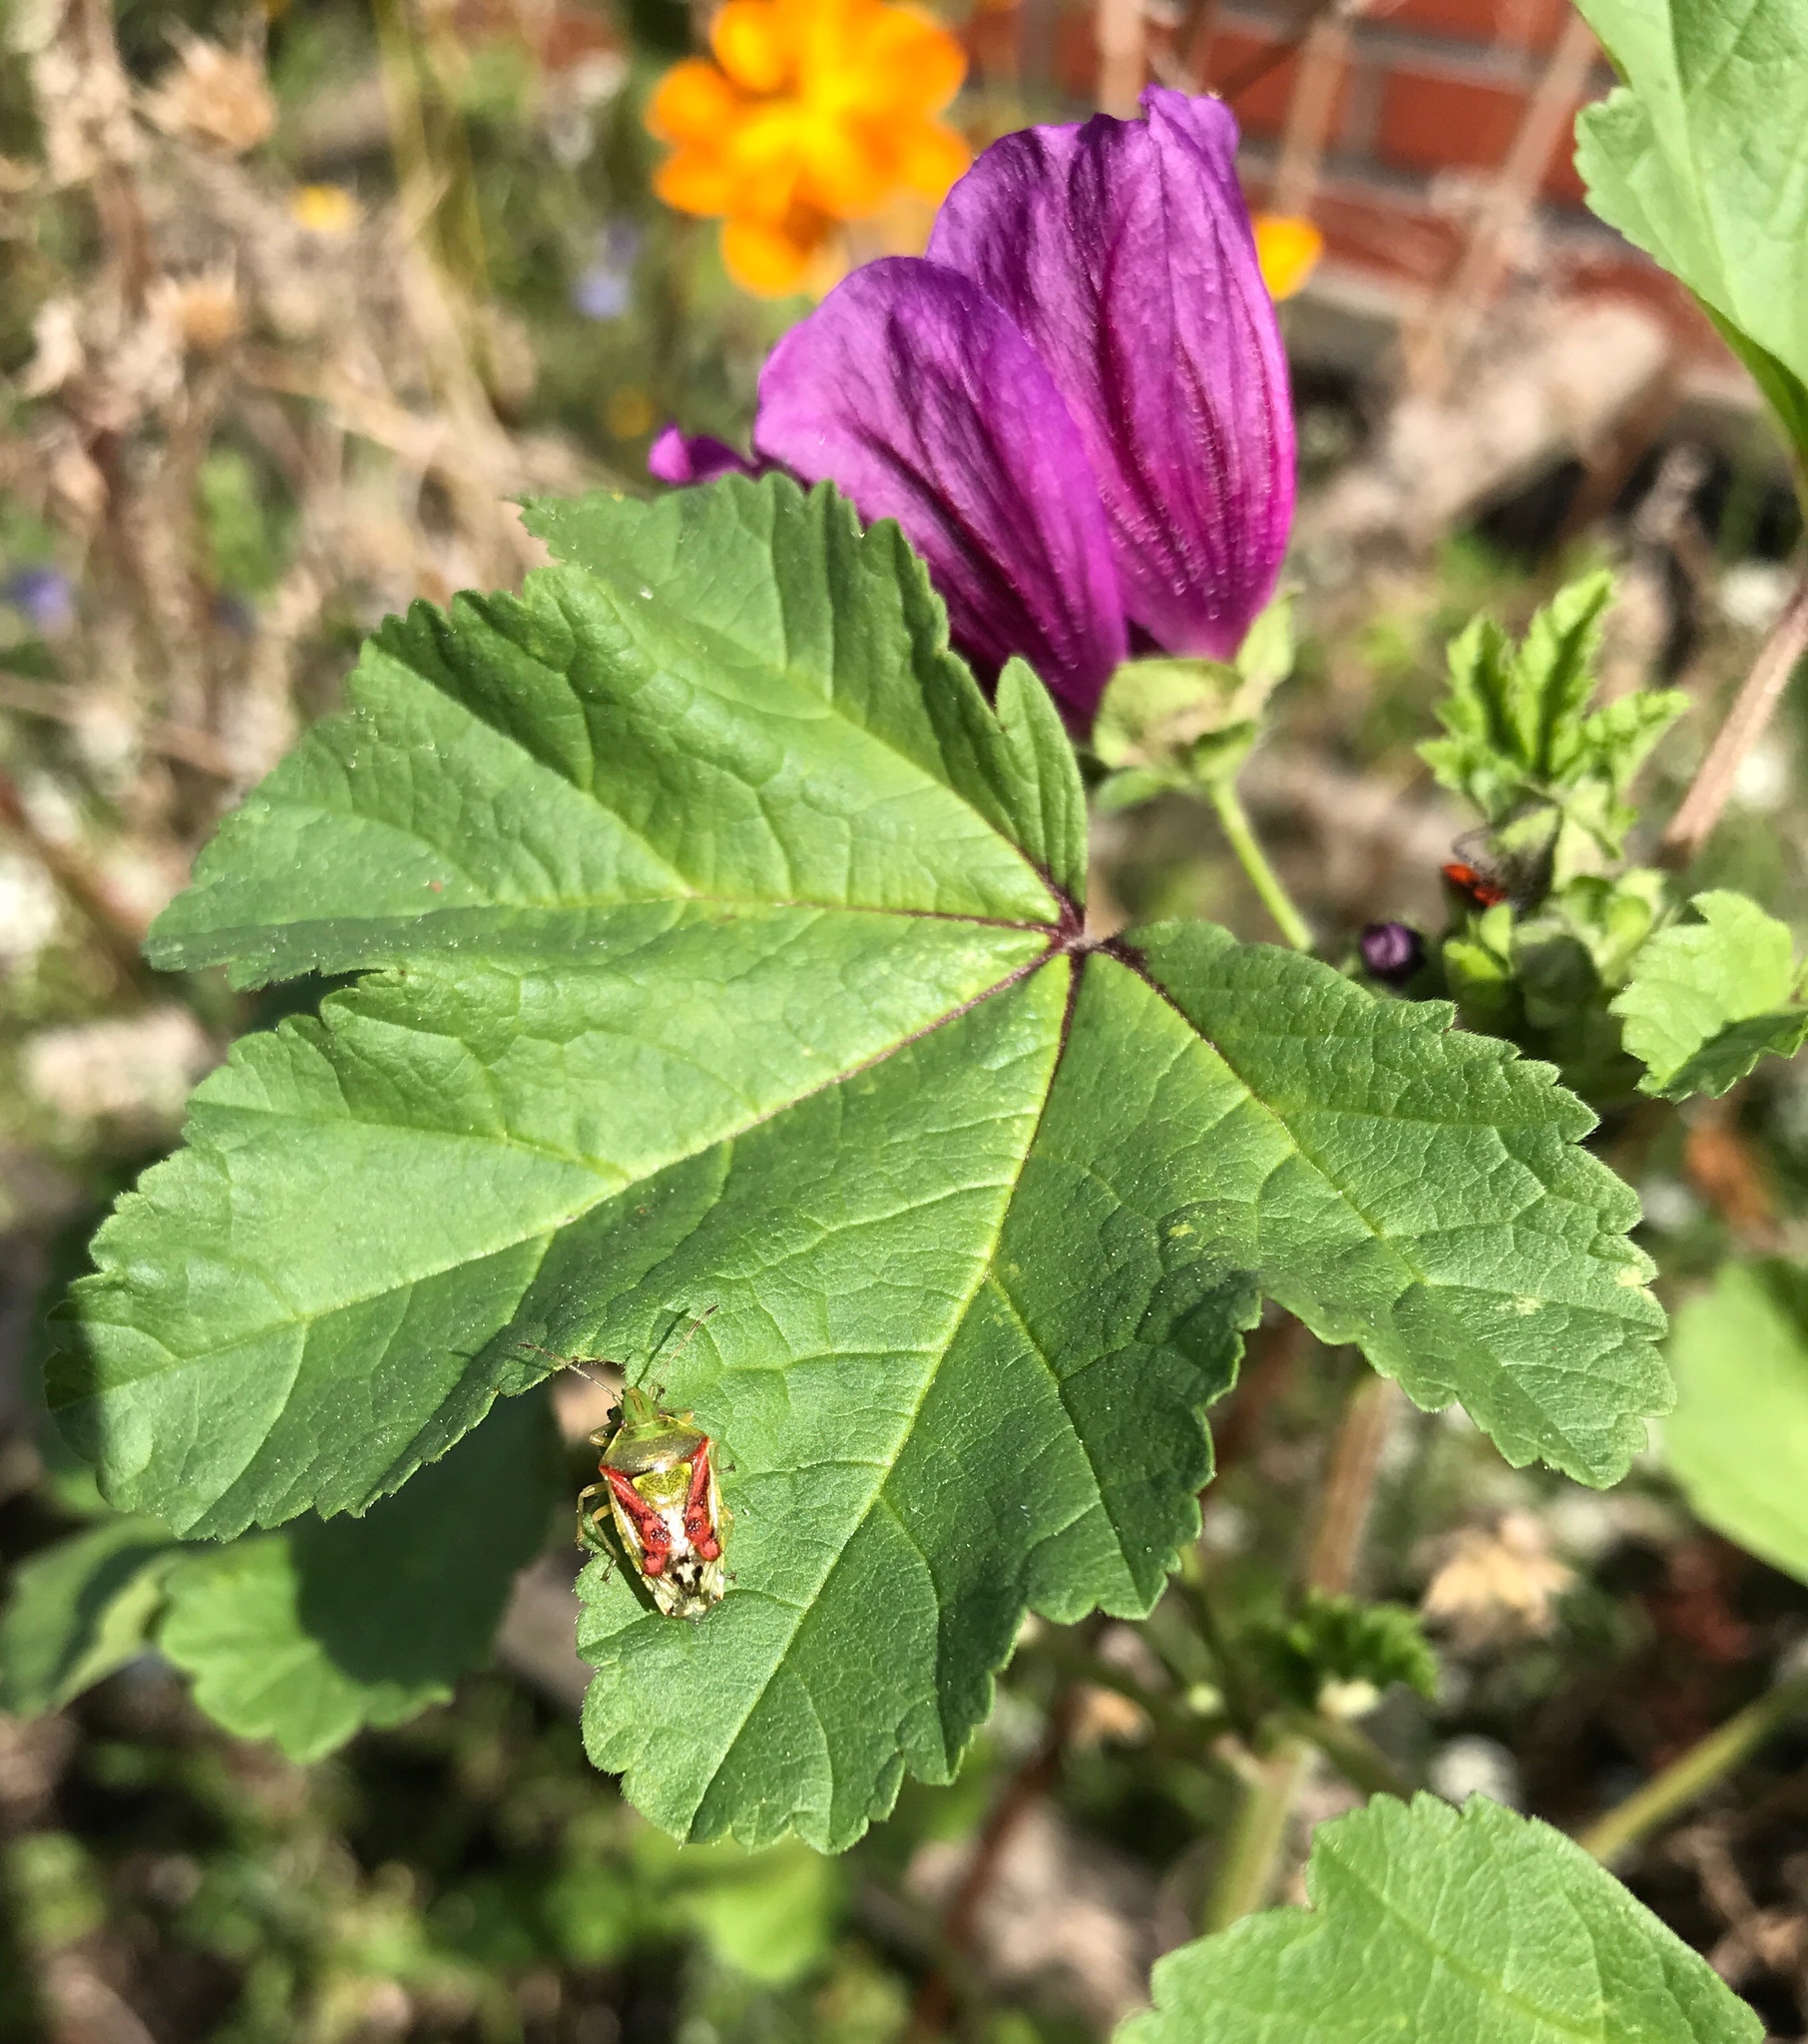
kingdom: Animalia
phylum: Arthropoda
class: Insecta
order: Hemiptera
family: Acanthosomatidae
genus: Cyphostethus
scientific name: Cyphostethus tristriatus
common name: Juniper shieldbug
